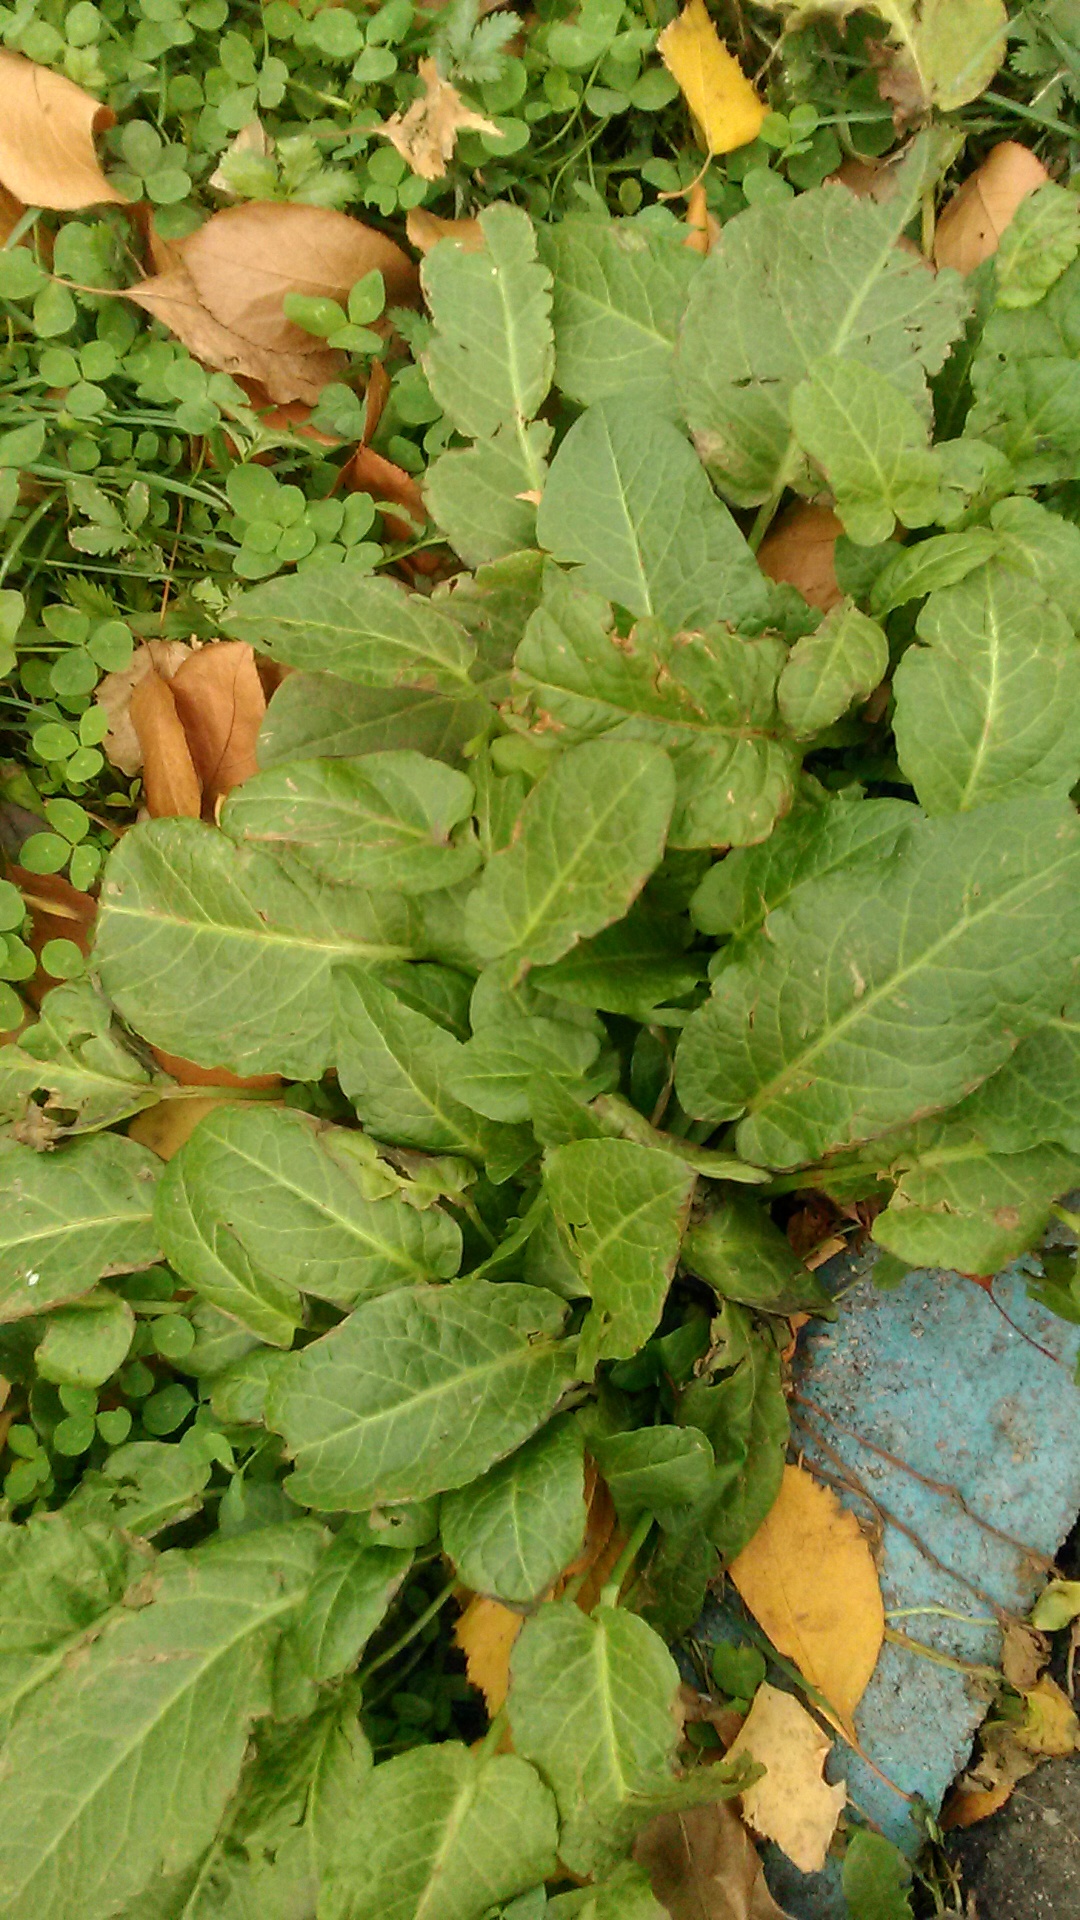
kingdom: Plantae
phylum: Tracheophyta
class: Magnoliopsida
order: Caryophyllales
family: Polygonaceae
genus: Rumex
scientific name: Rumex obtusifolius
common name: Bitter dock
